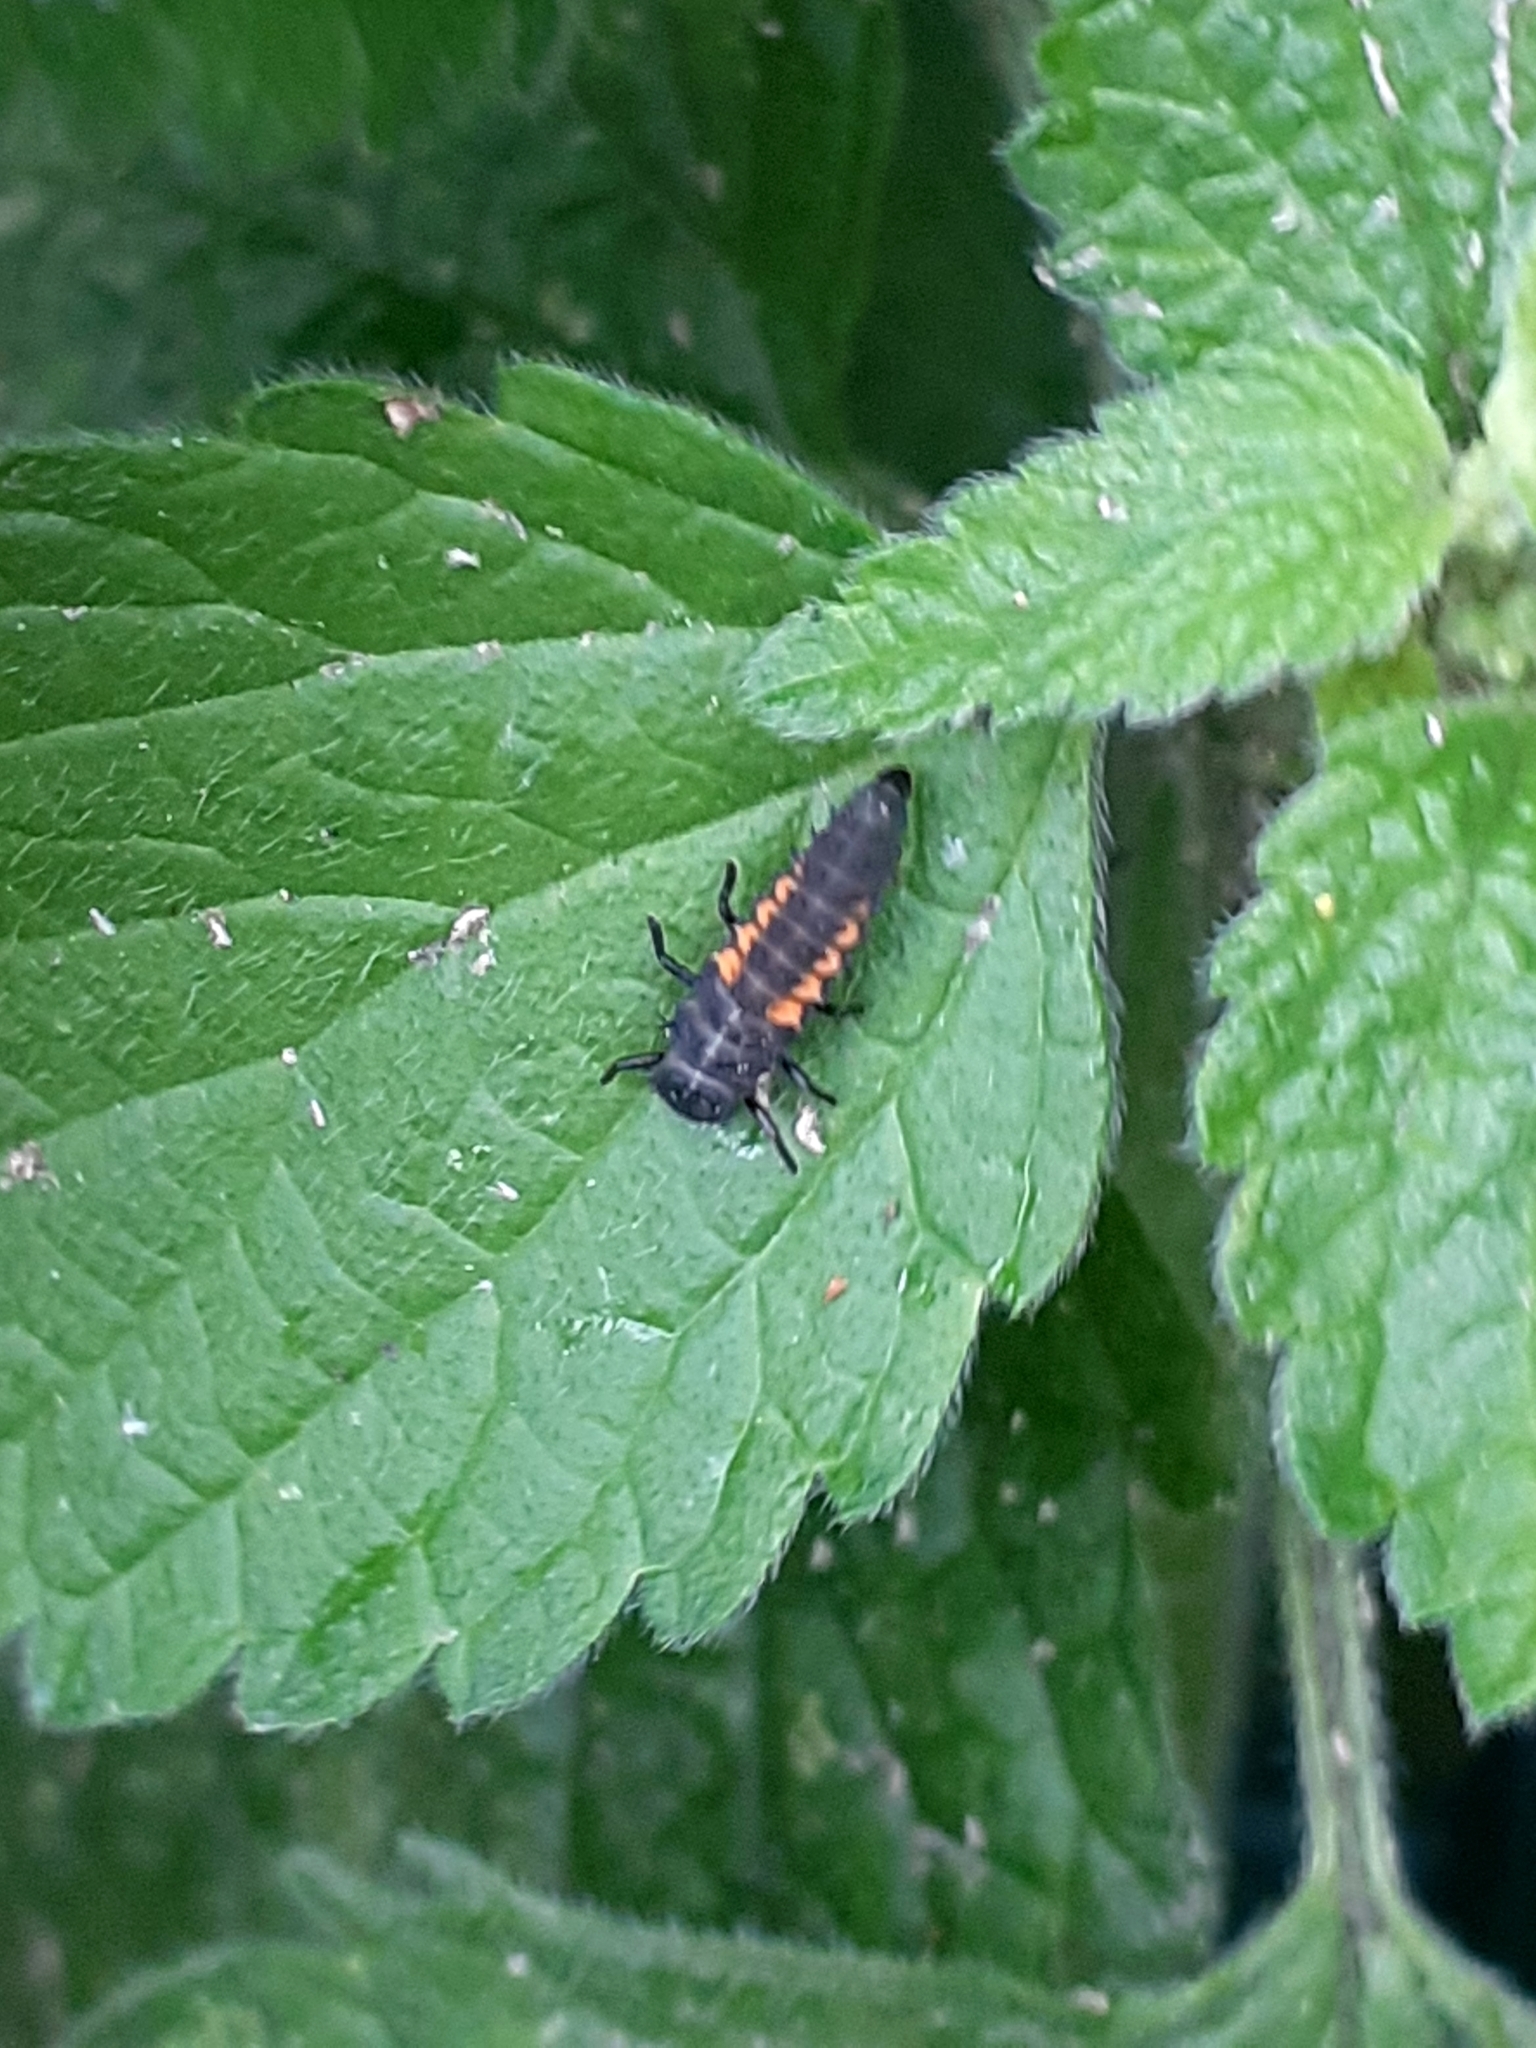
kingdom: Animalia
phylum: Arthropoda
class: Insecta
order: Coleoptera
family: Coccinellidae
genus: Harmonia
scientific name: Harmonia axyridis
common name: Harlequin ladybird
